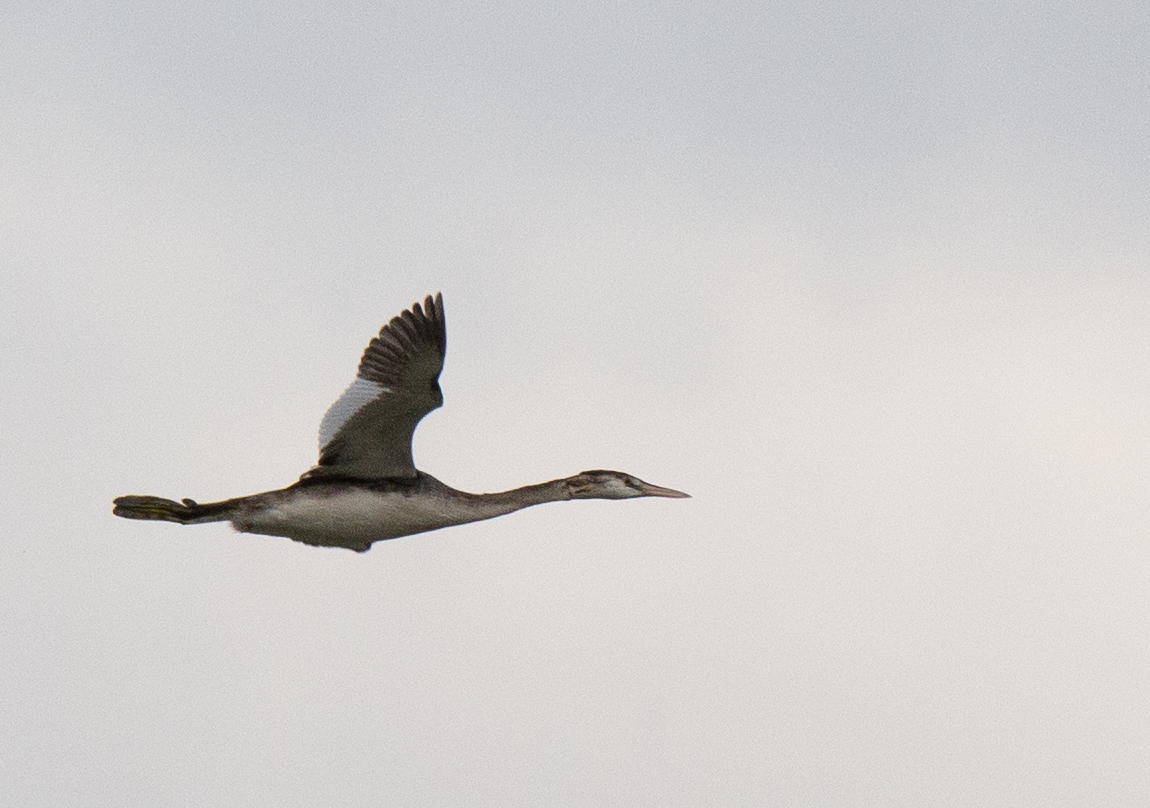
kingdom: Animalia
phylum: Chordata
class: Aves
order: Podicipediformes
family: Podicipedidae
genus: Podiceps
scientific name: Podiceps cristatus
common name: Great crested grebe
